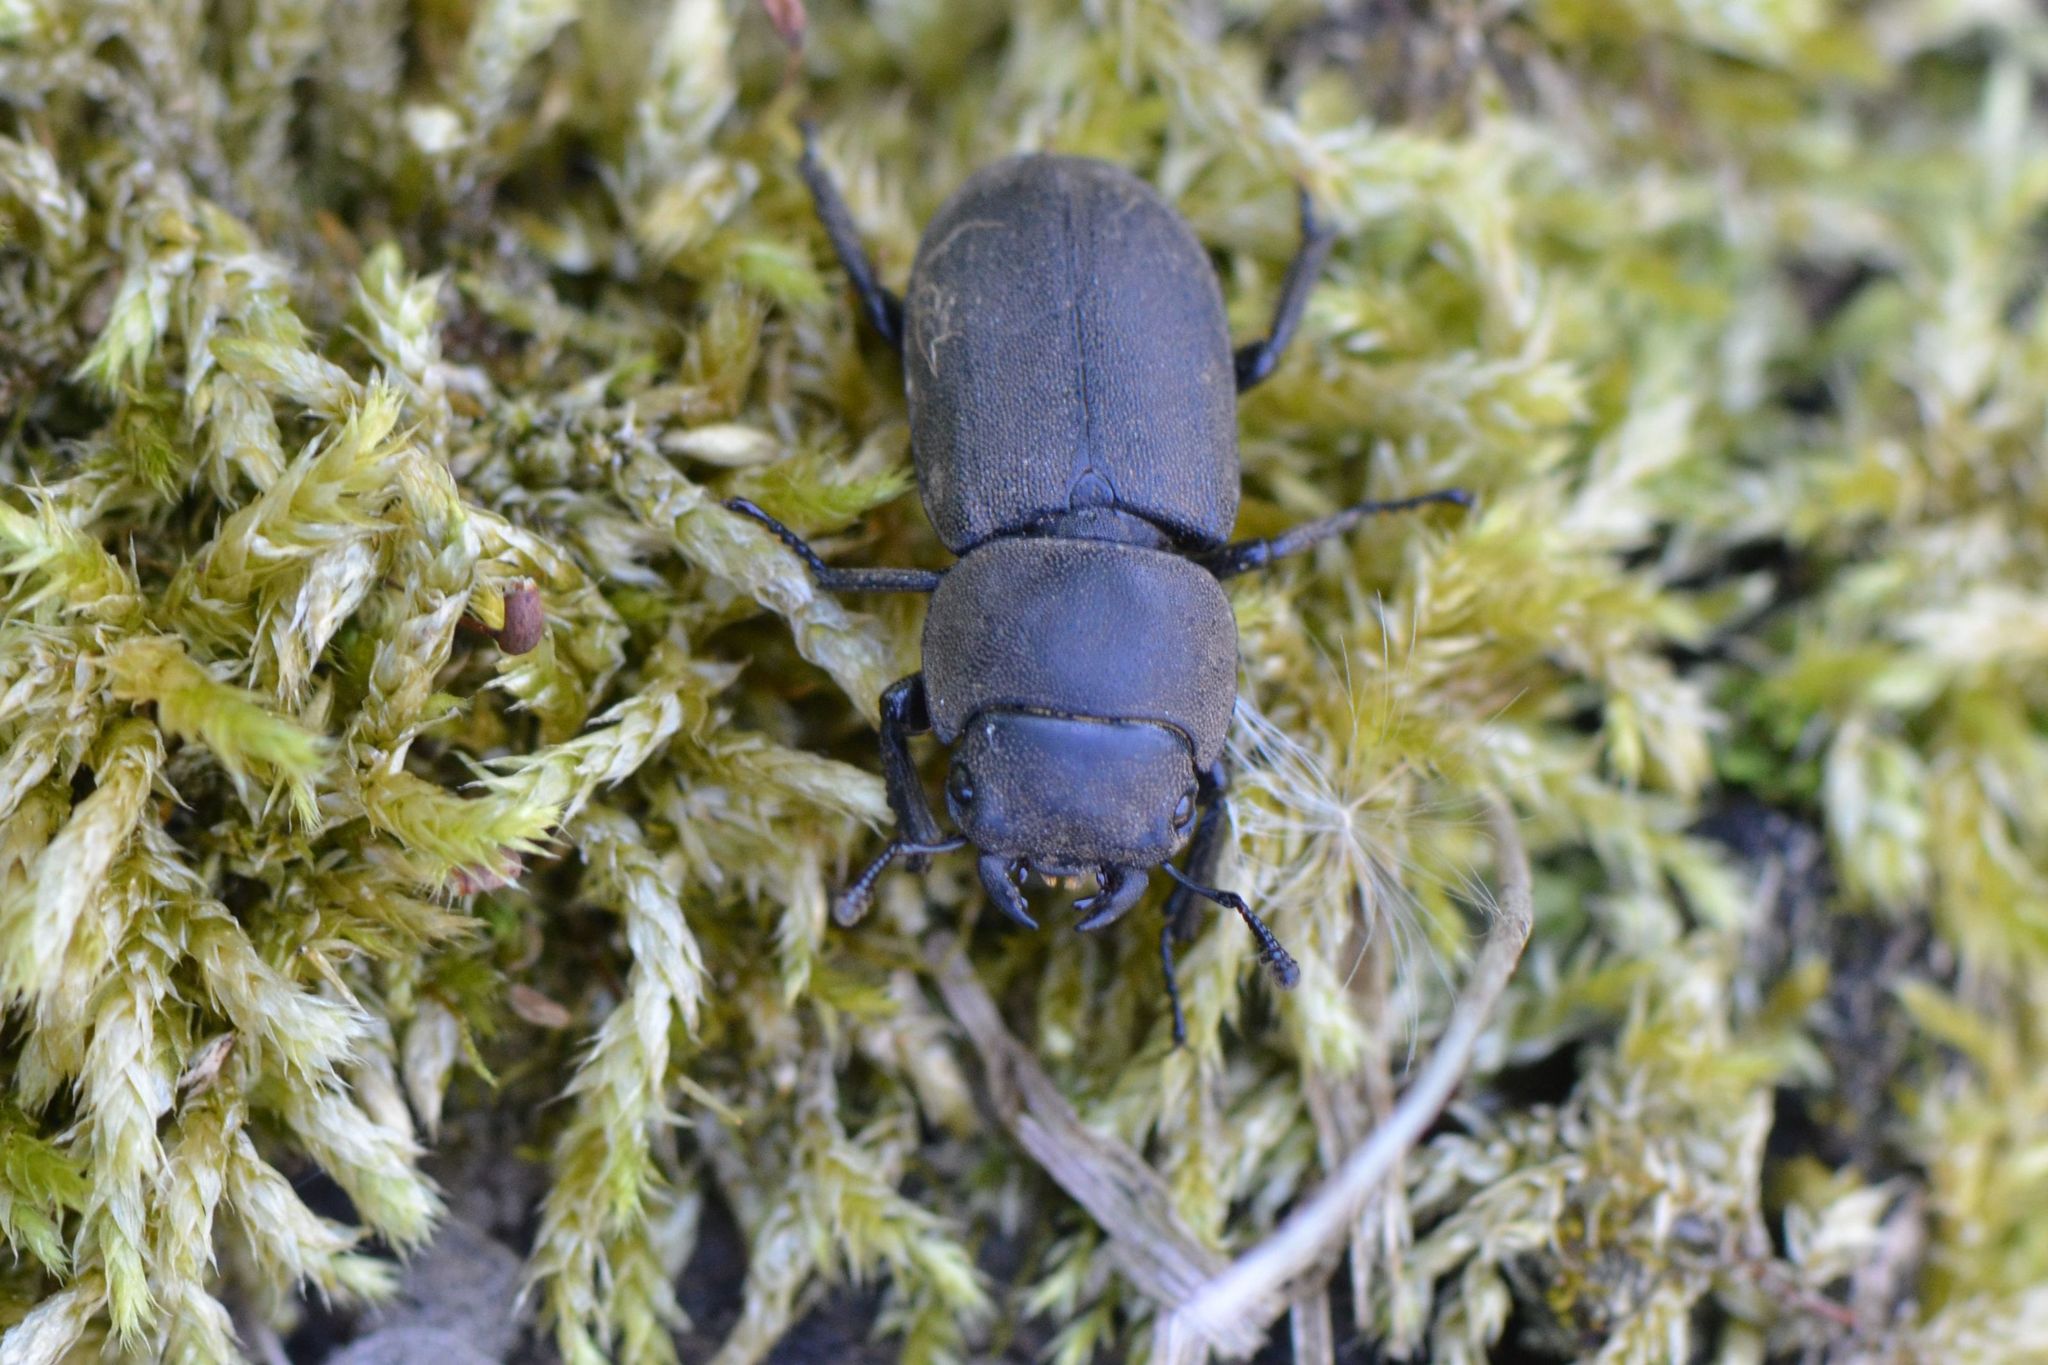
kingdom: Animalia
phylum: Arthropoda
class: Insecta
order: Coleoptera
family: Lucanidae
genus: Dorcus
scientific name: Dorcus parallelipipedus
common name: Lesser stag beetle
